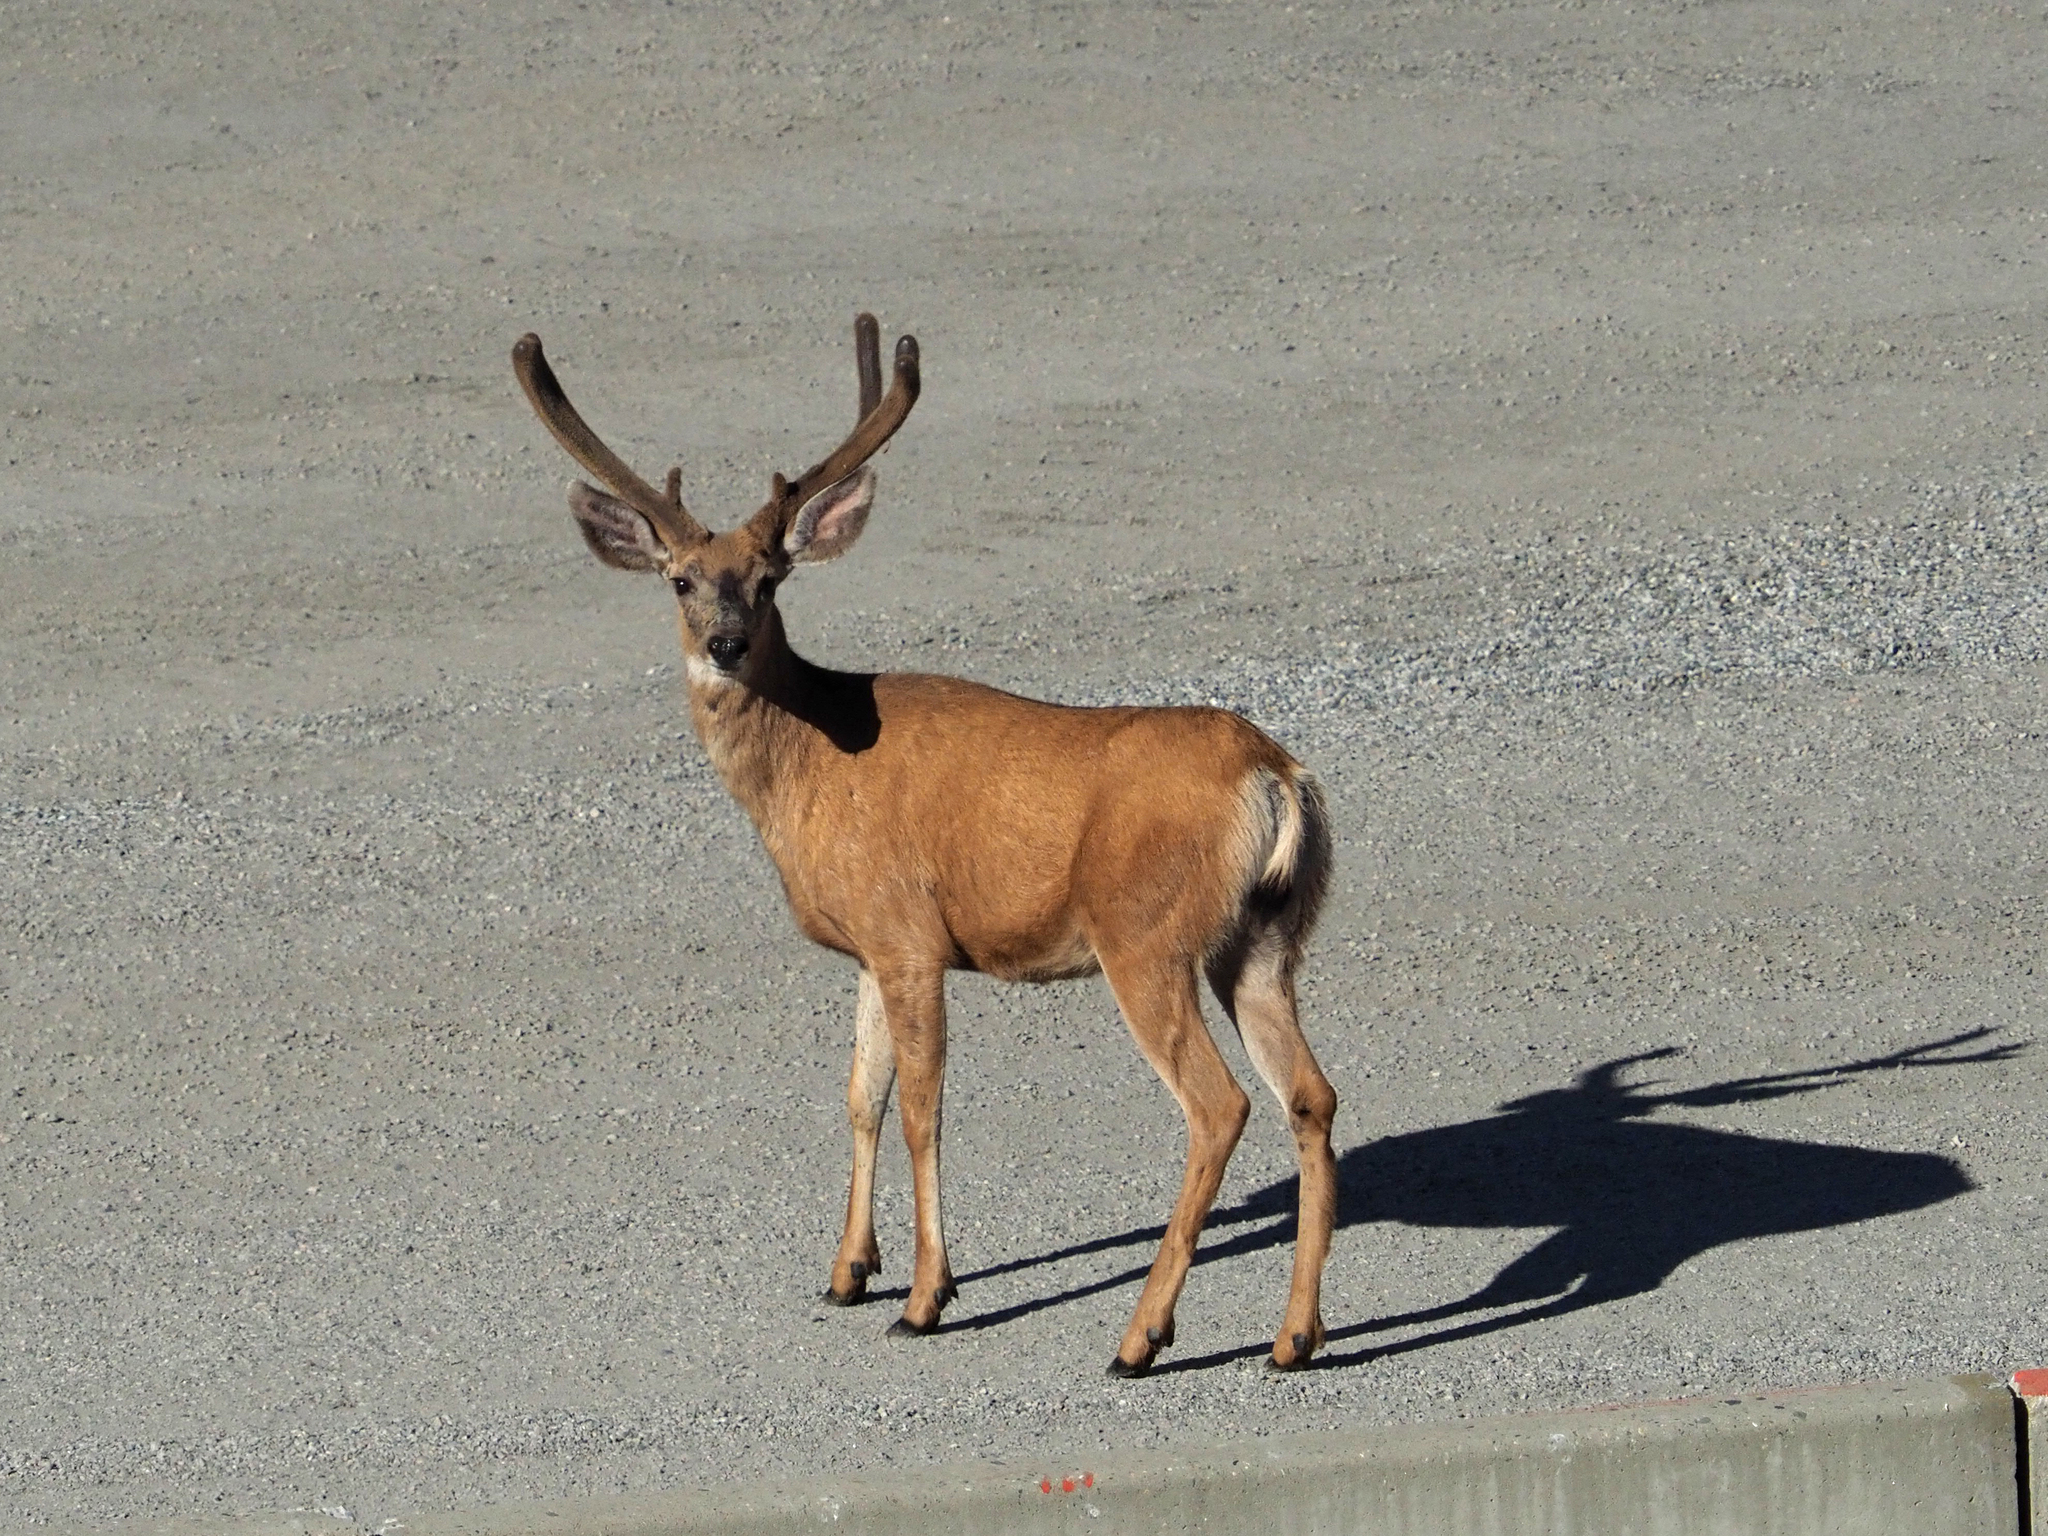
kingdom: Animalia
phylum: Chordata
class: Mammalia
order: Artiodactyla
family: Cervidae
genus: Odocoileus
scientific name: Odocoileus hemionus
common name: Mule deer
